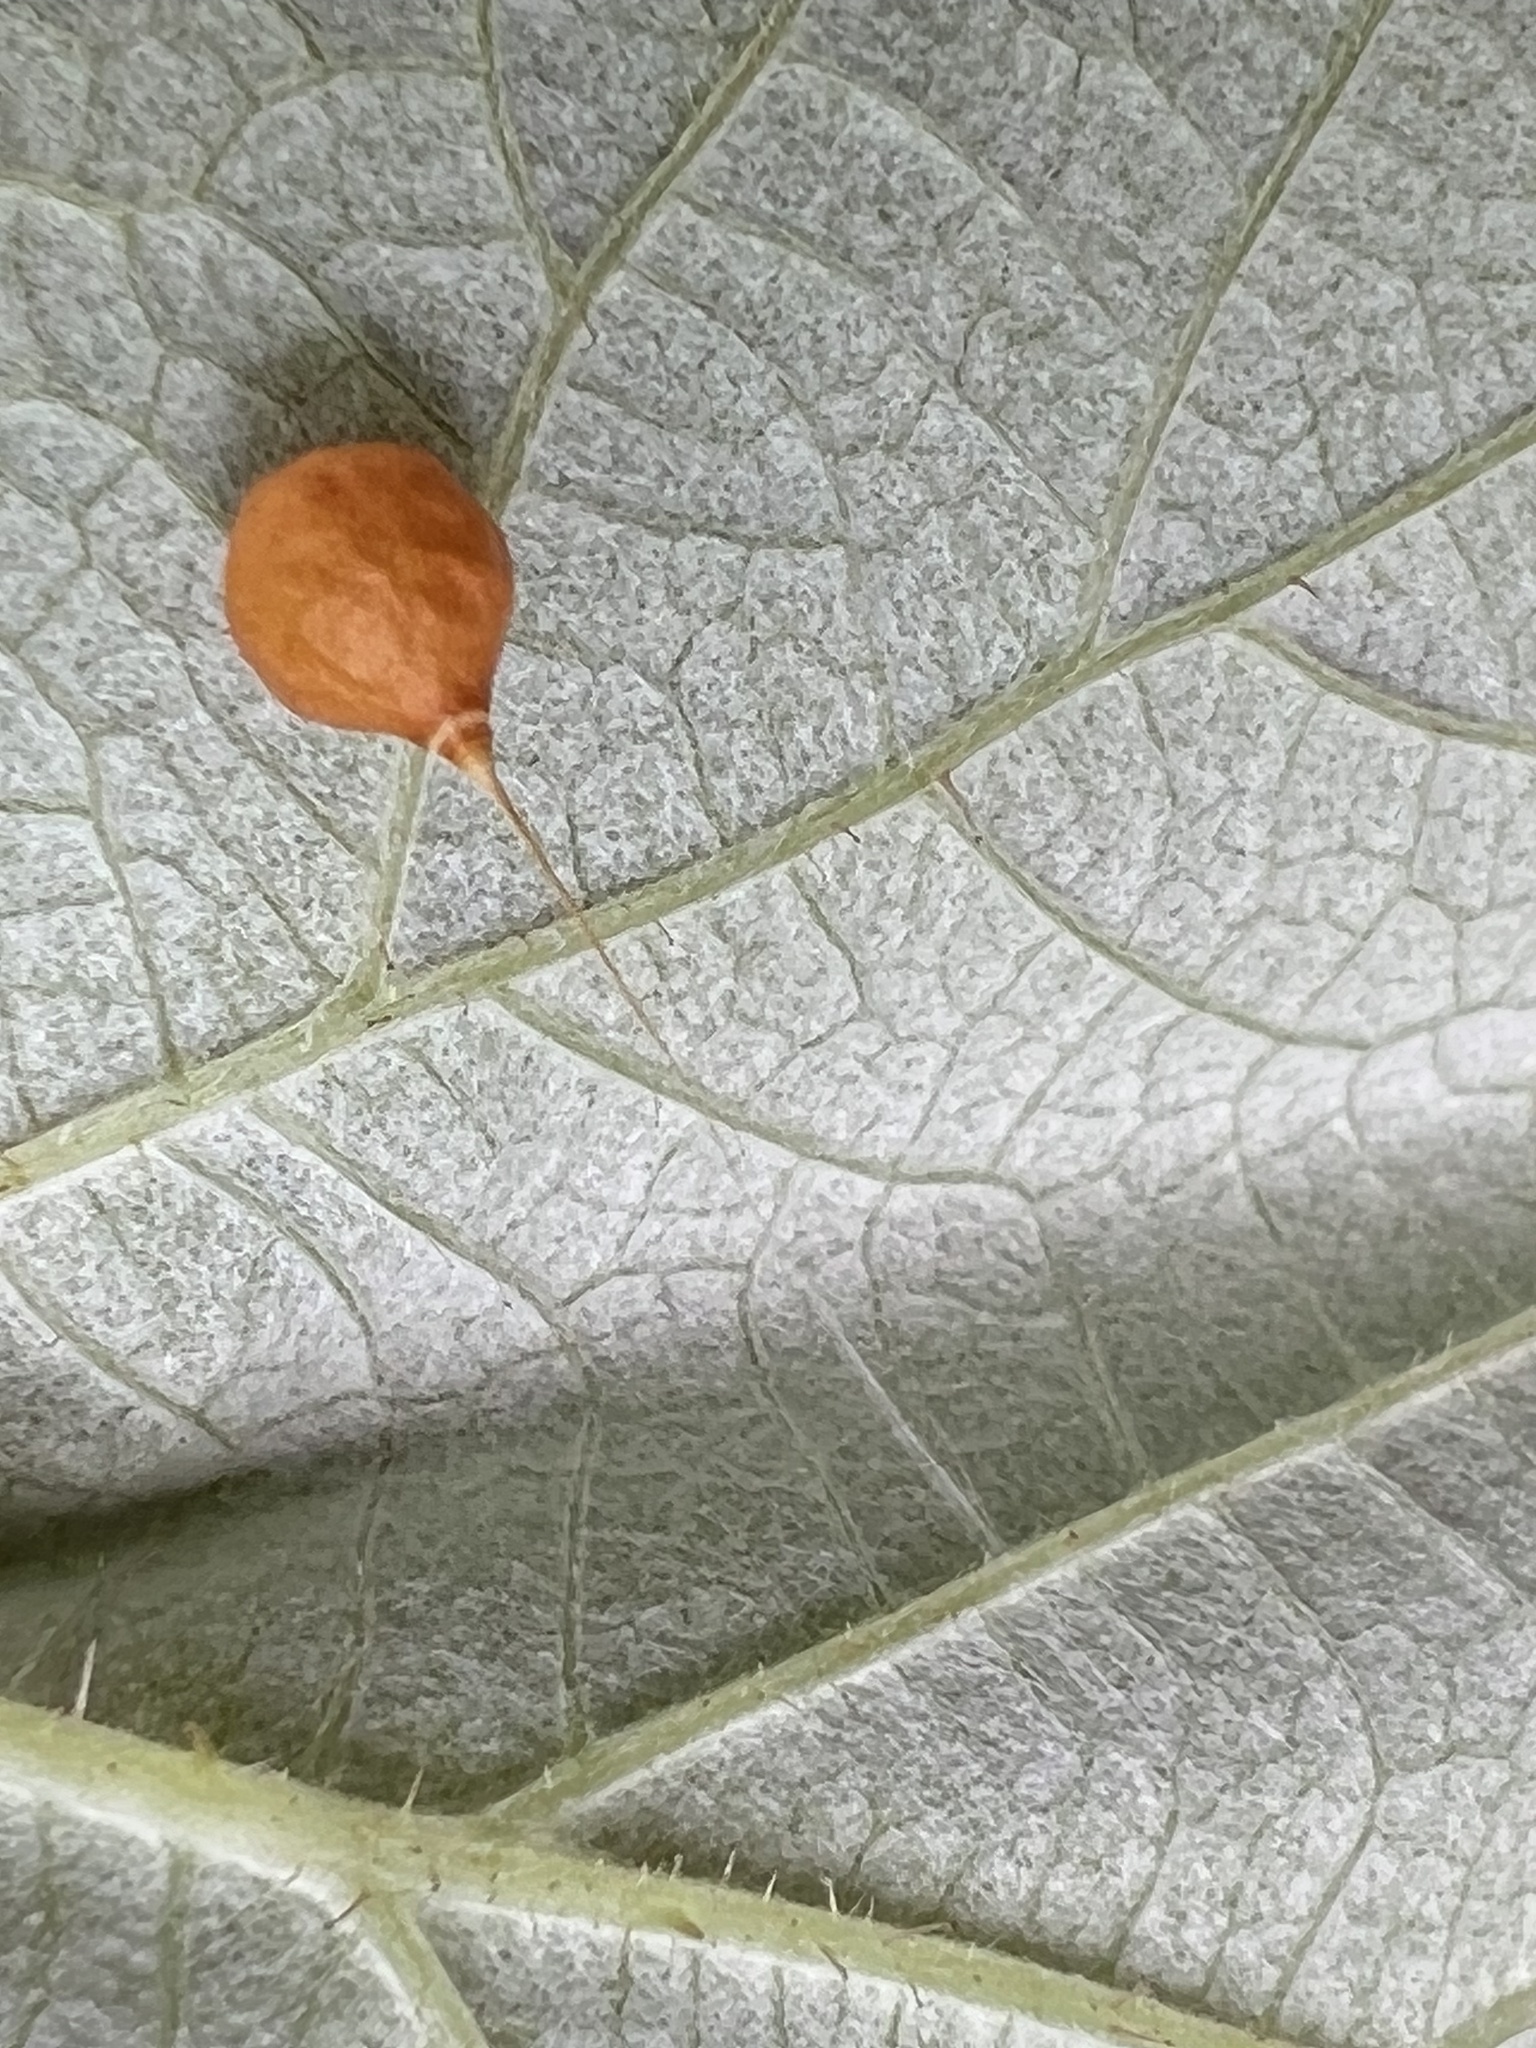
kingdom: Animalia
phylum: Arthropoda
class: Arachnida
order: Araneae
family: Theridiosomatidae
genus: Theridiosoma
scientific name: Theridiosoma gemmosum
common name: Ray spider
